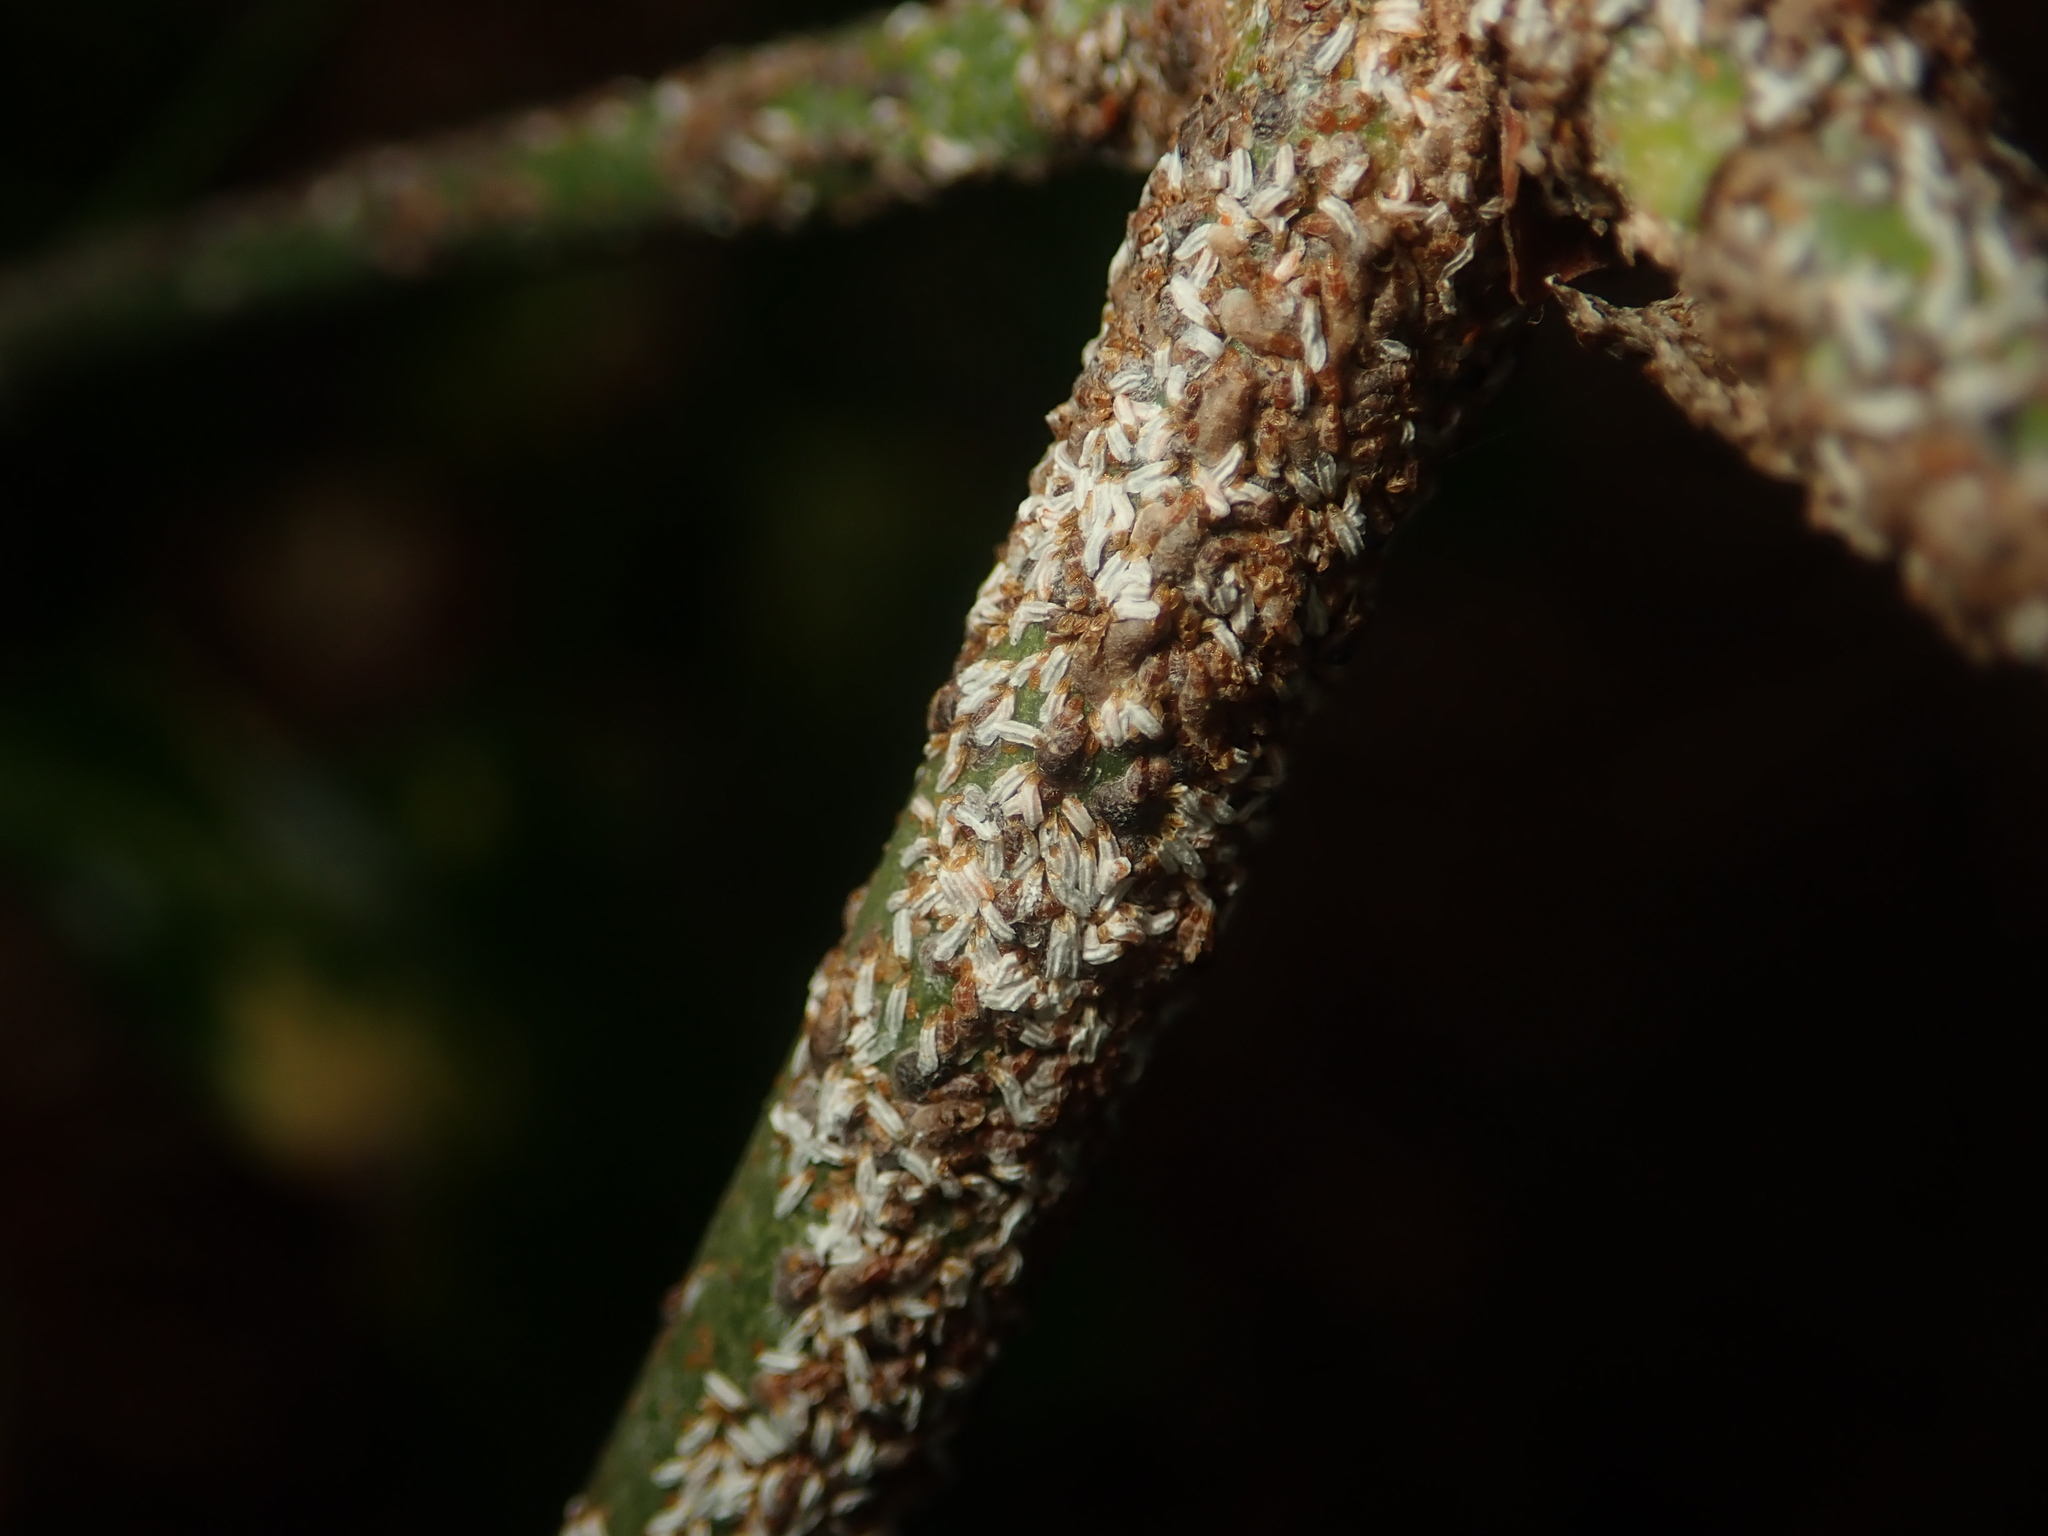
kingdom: Animalia
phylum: Arthropoda
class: Insecta
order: Hemiptera
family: Diaspididae
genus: Unaspis
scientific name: Unaspis euonymi
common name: Euonymus scale
